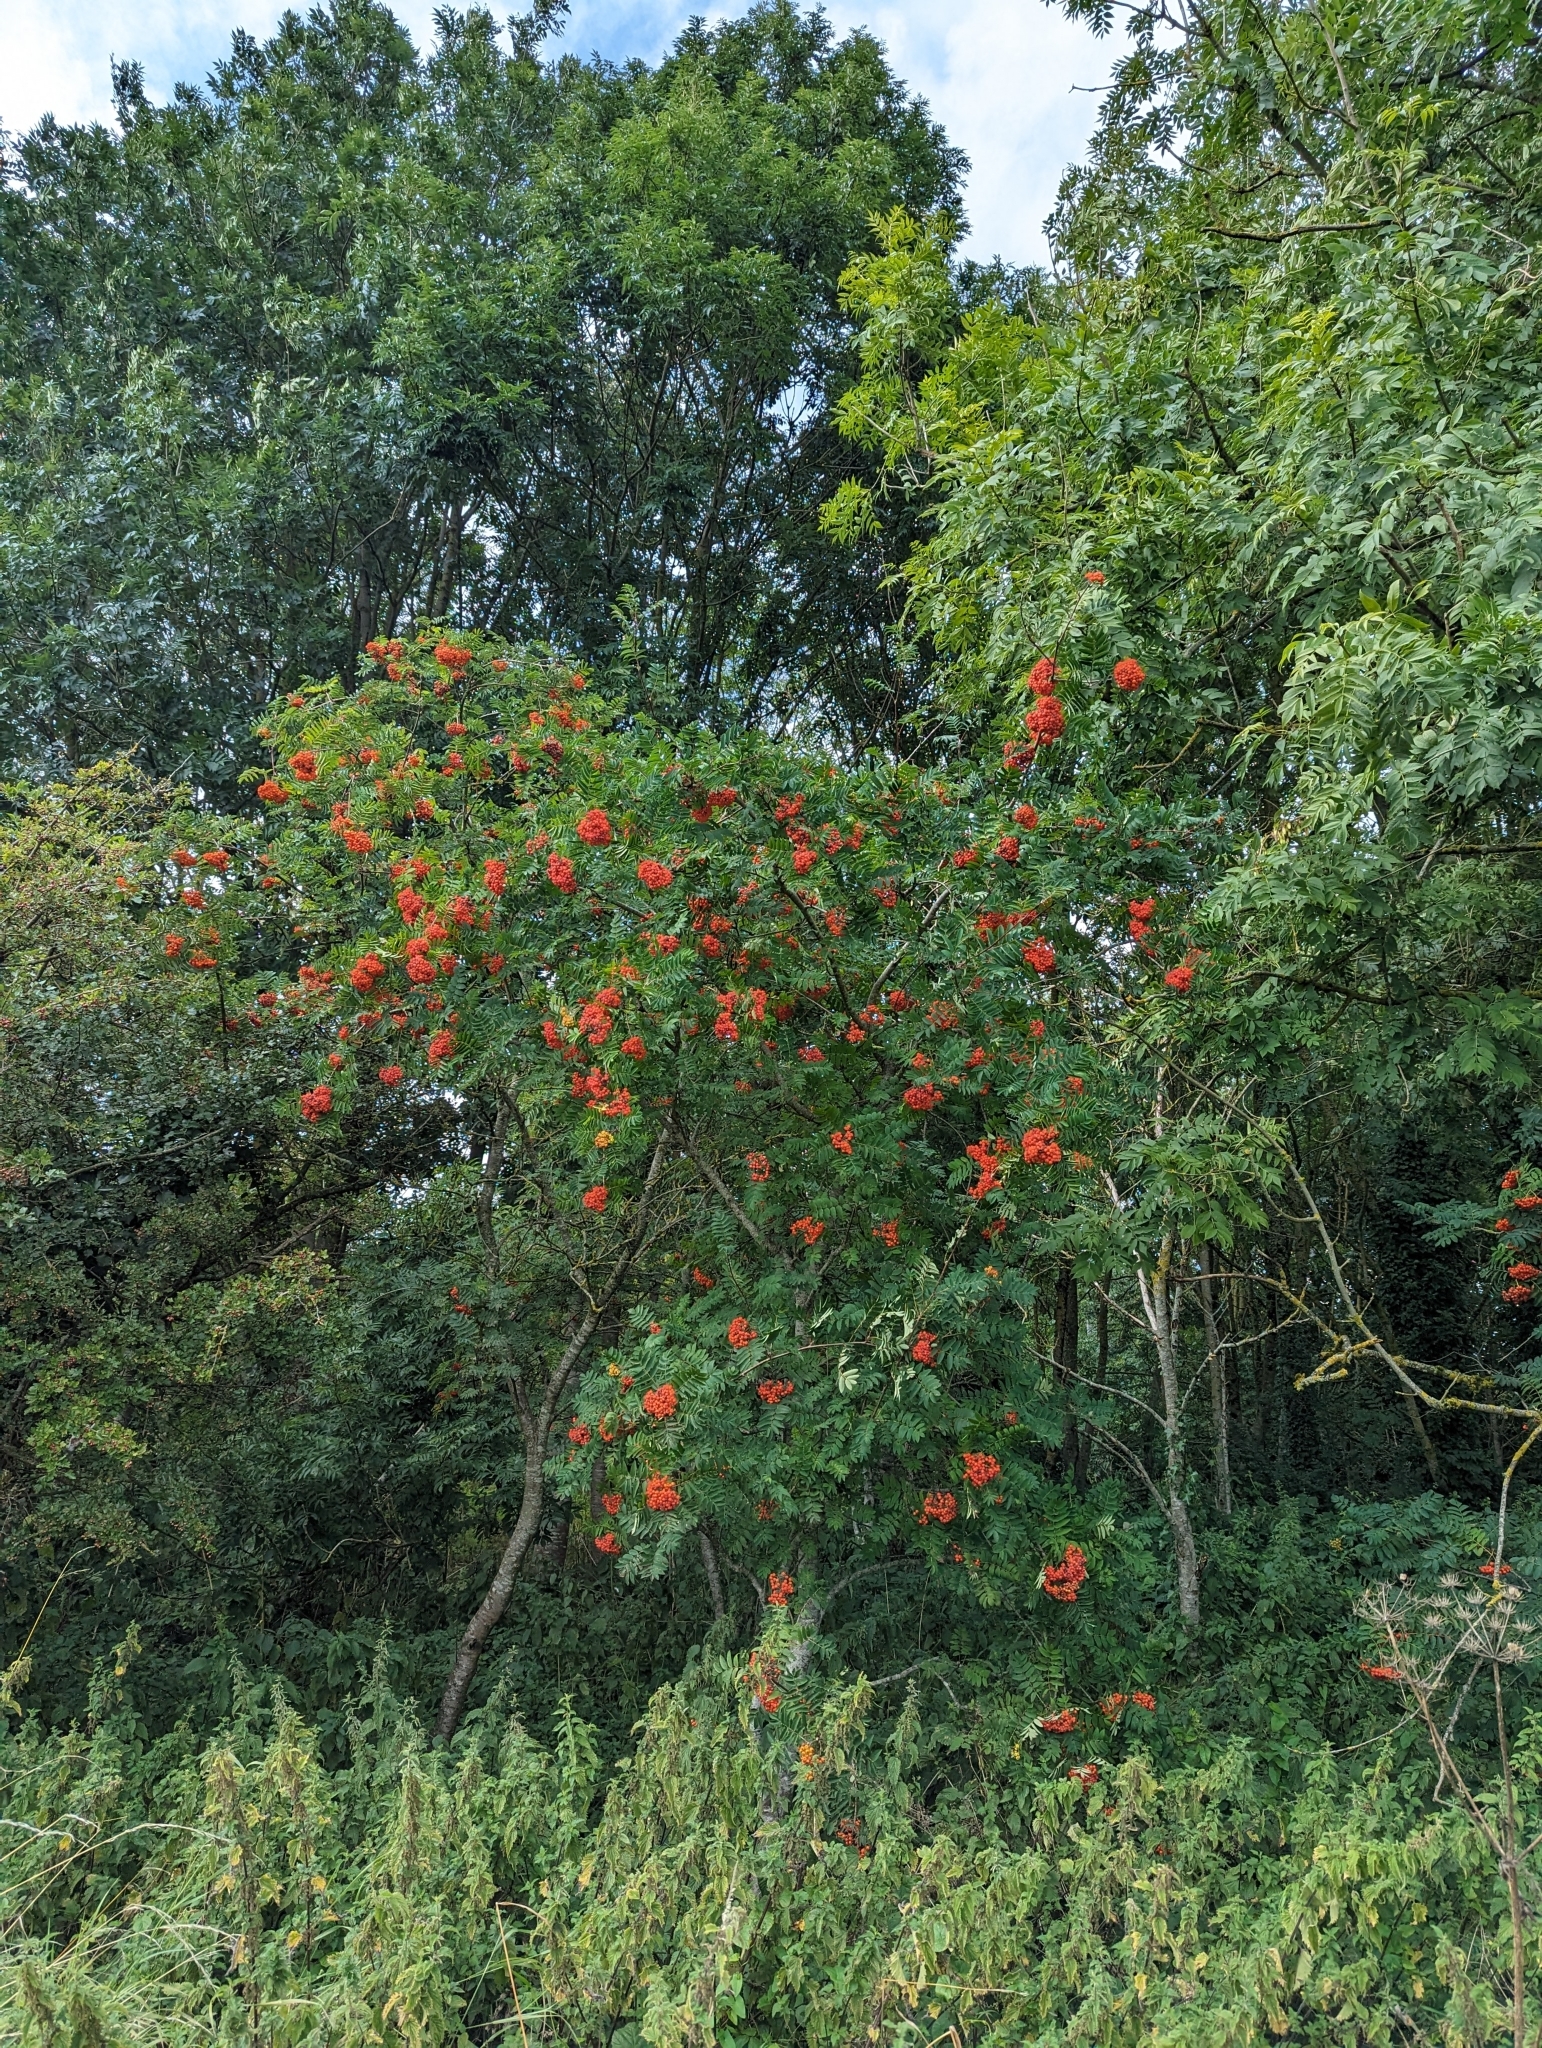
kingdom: Plantae
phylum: Tracheophyta
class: Magnoliopsida
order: Rosales
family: Rosaceae
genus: Sorbus
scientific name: Sorbus aucuparia
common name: Rowan
